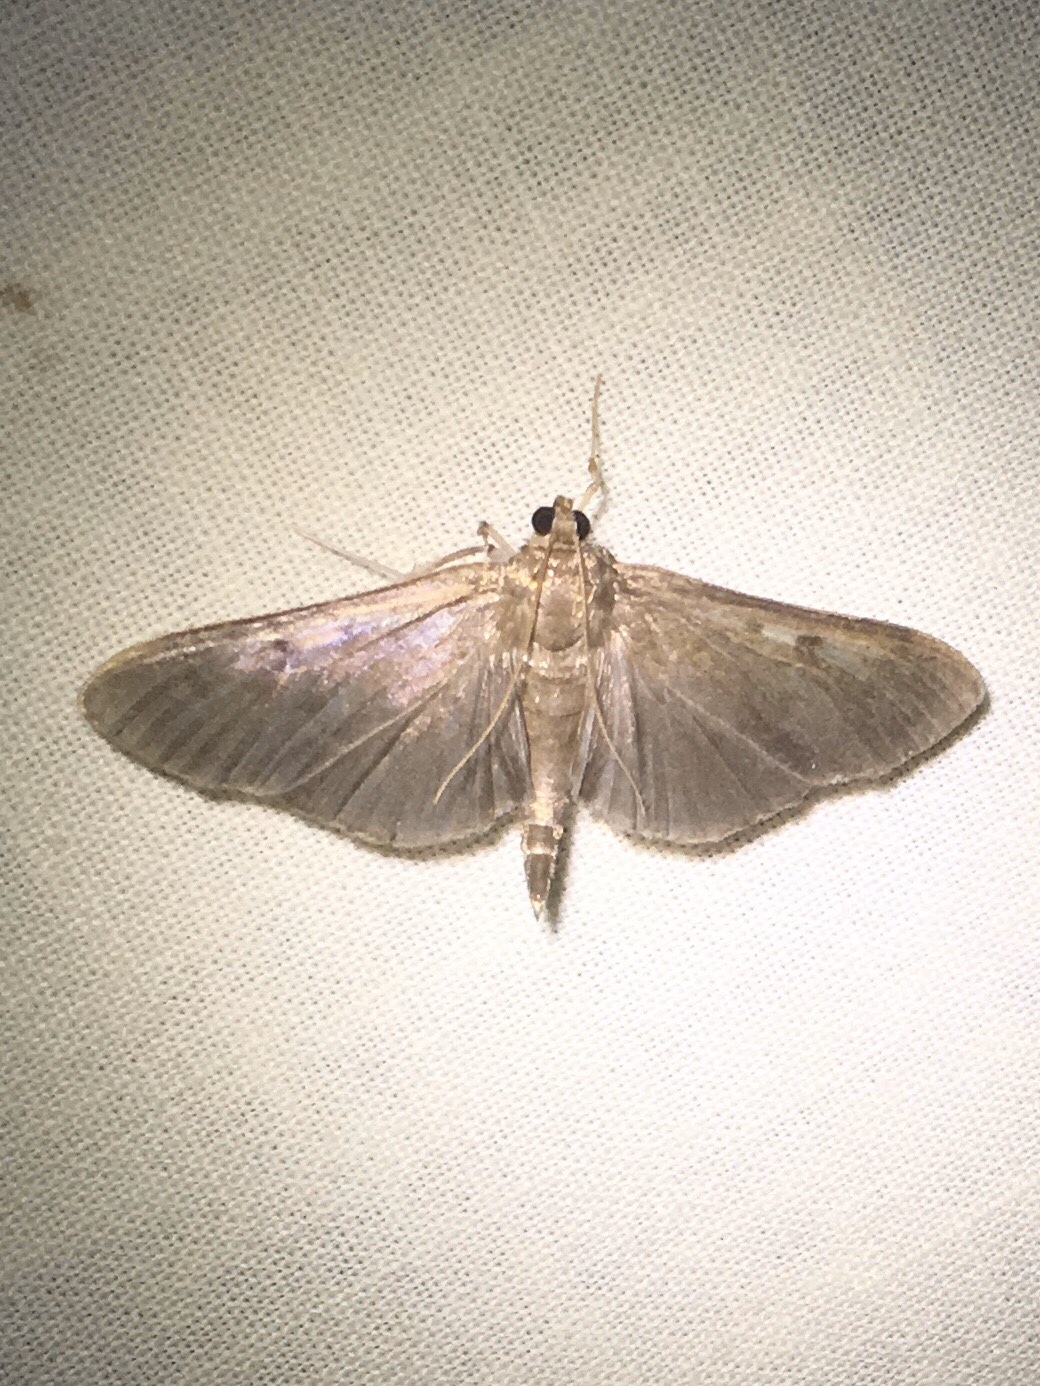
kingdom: Animalia
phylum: Arthropoda
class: Insecta
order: Lepidoptera
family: Crambidae
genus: Herpetogramma
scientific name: Herpetogramma sphingealis
